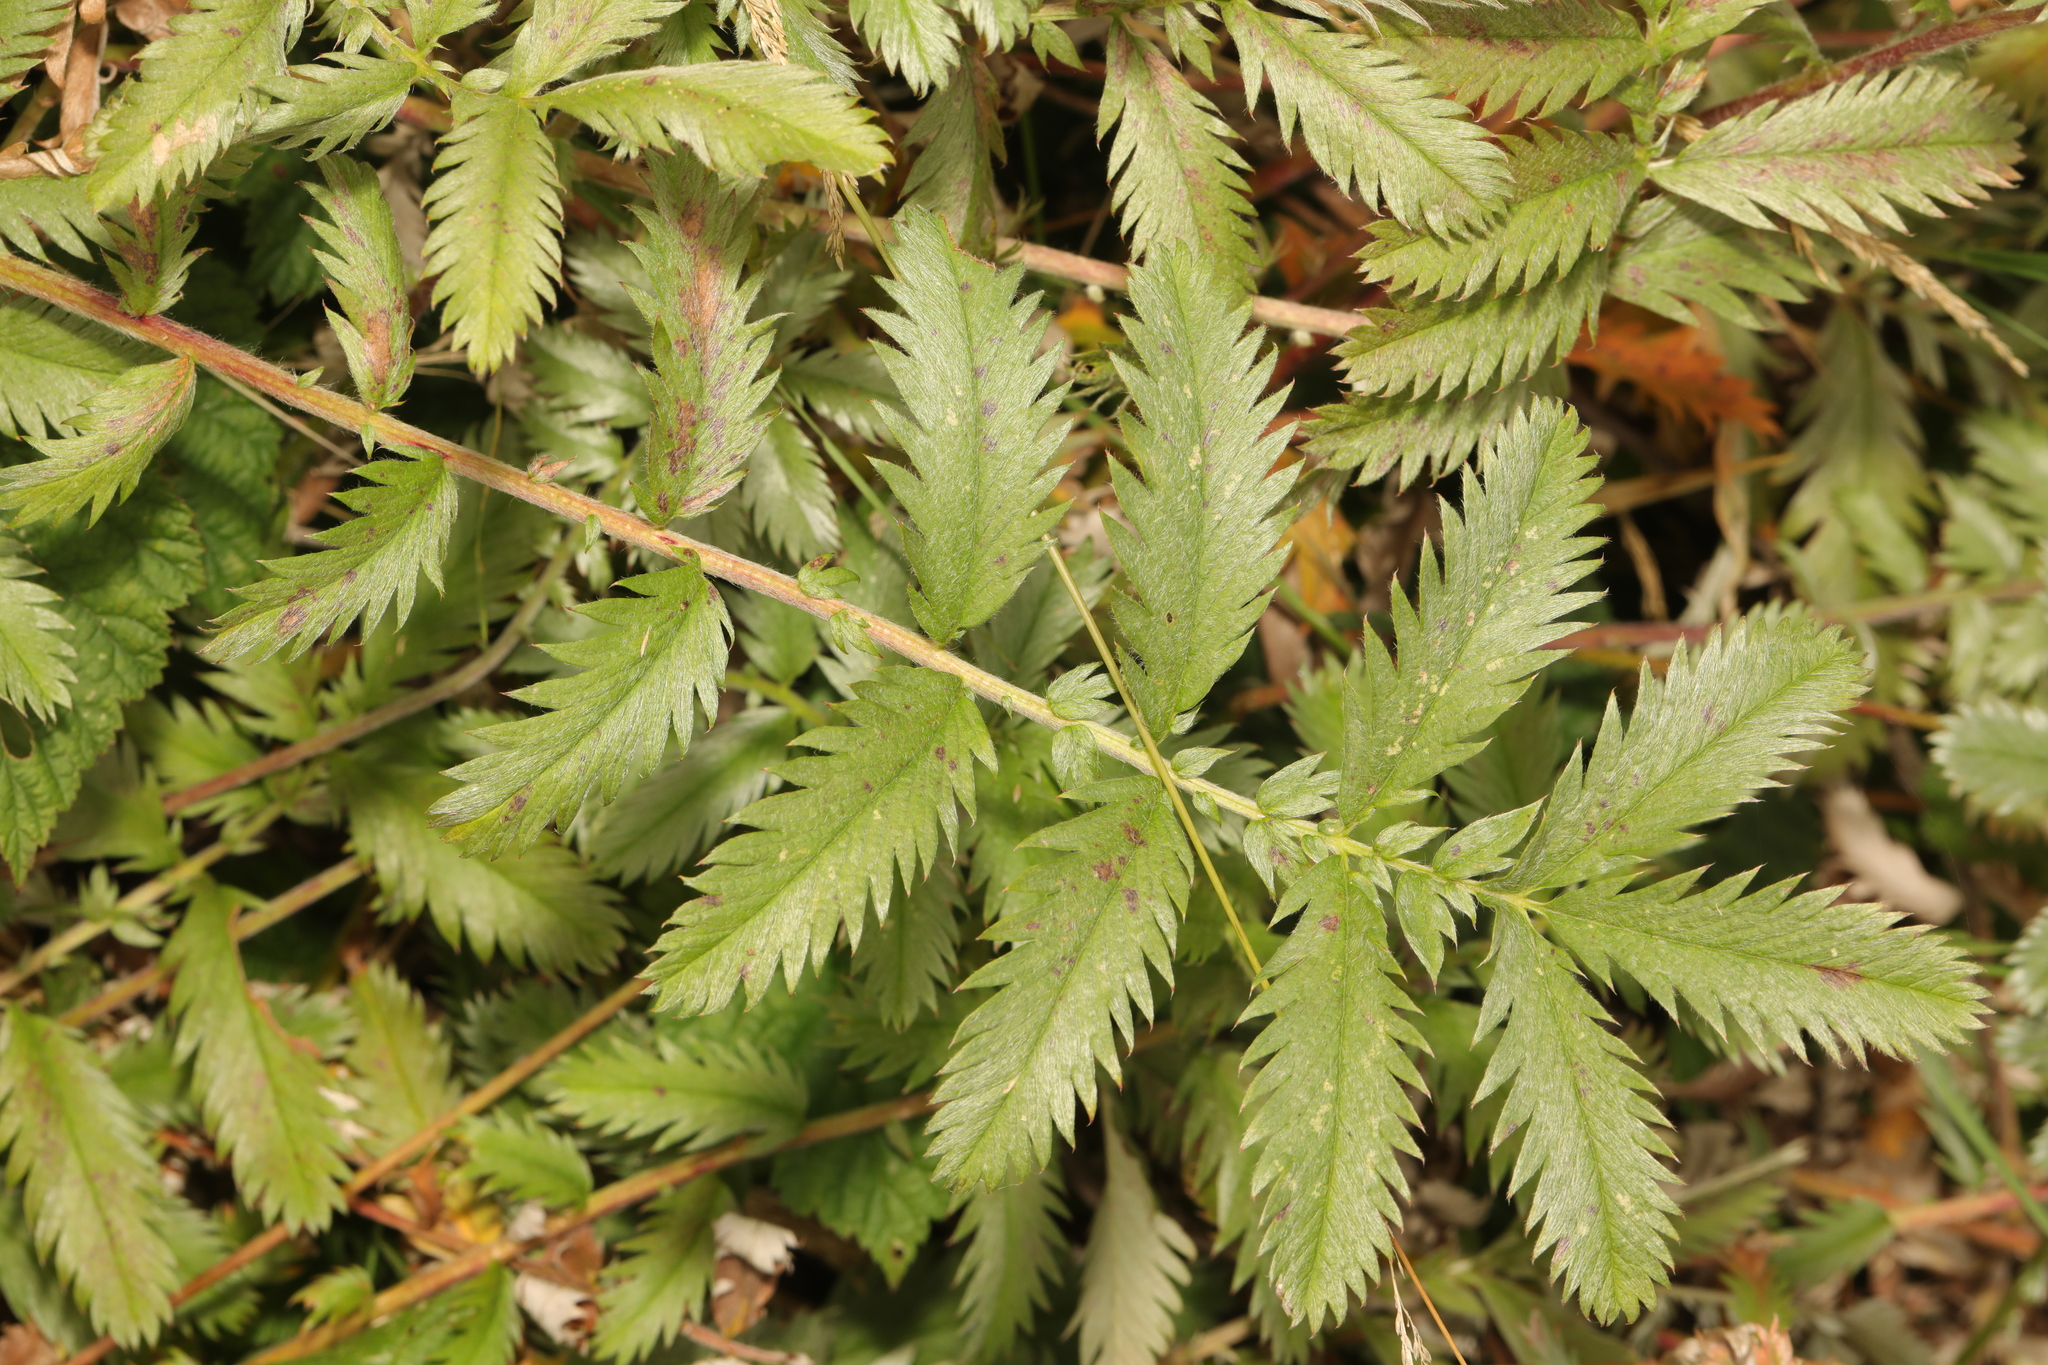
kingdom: Plantae
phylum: Tracheophyta
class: Magnoliopsida
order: Rosales
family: Rosaceae
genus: Argentina
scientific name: Argentina anserina
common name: Common silverweed
